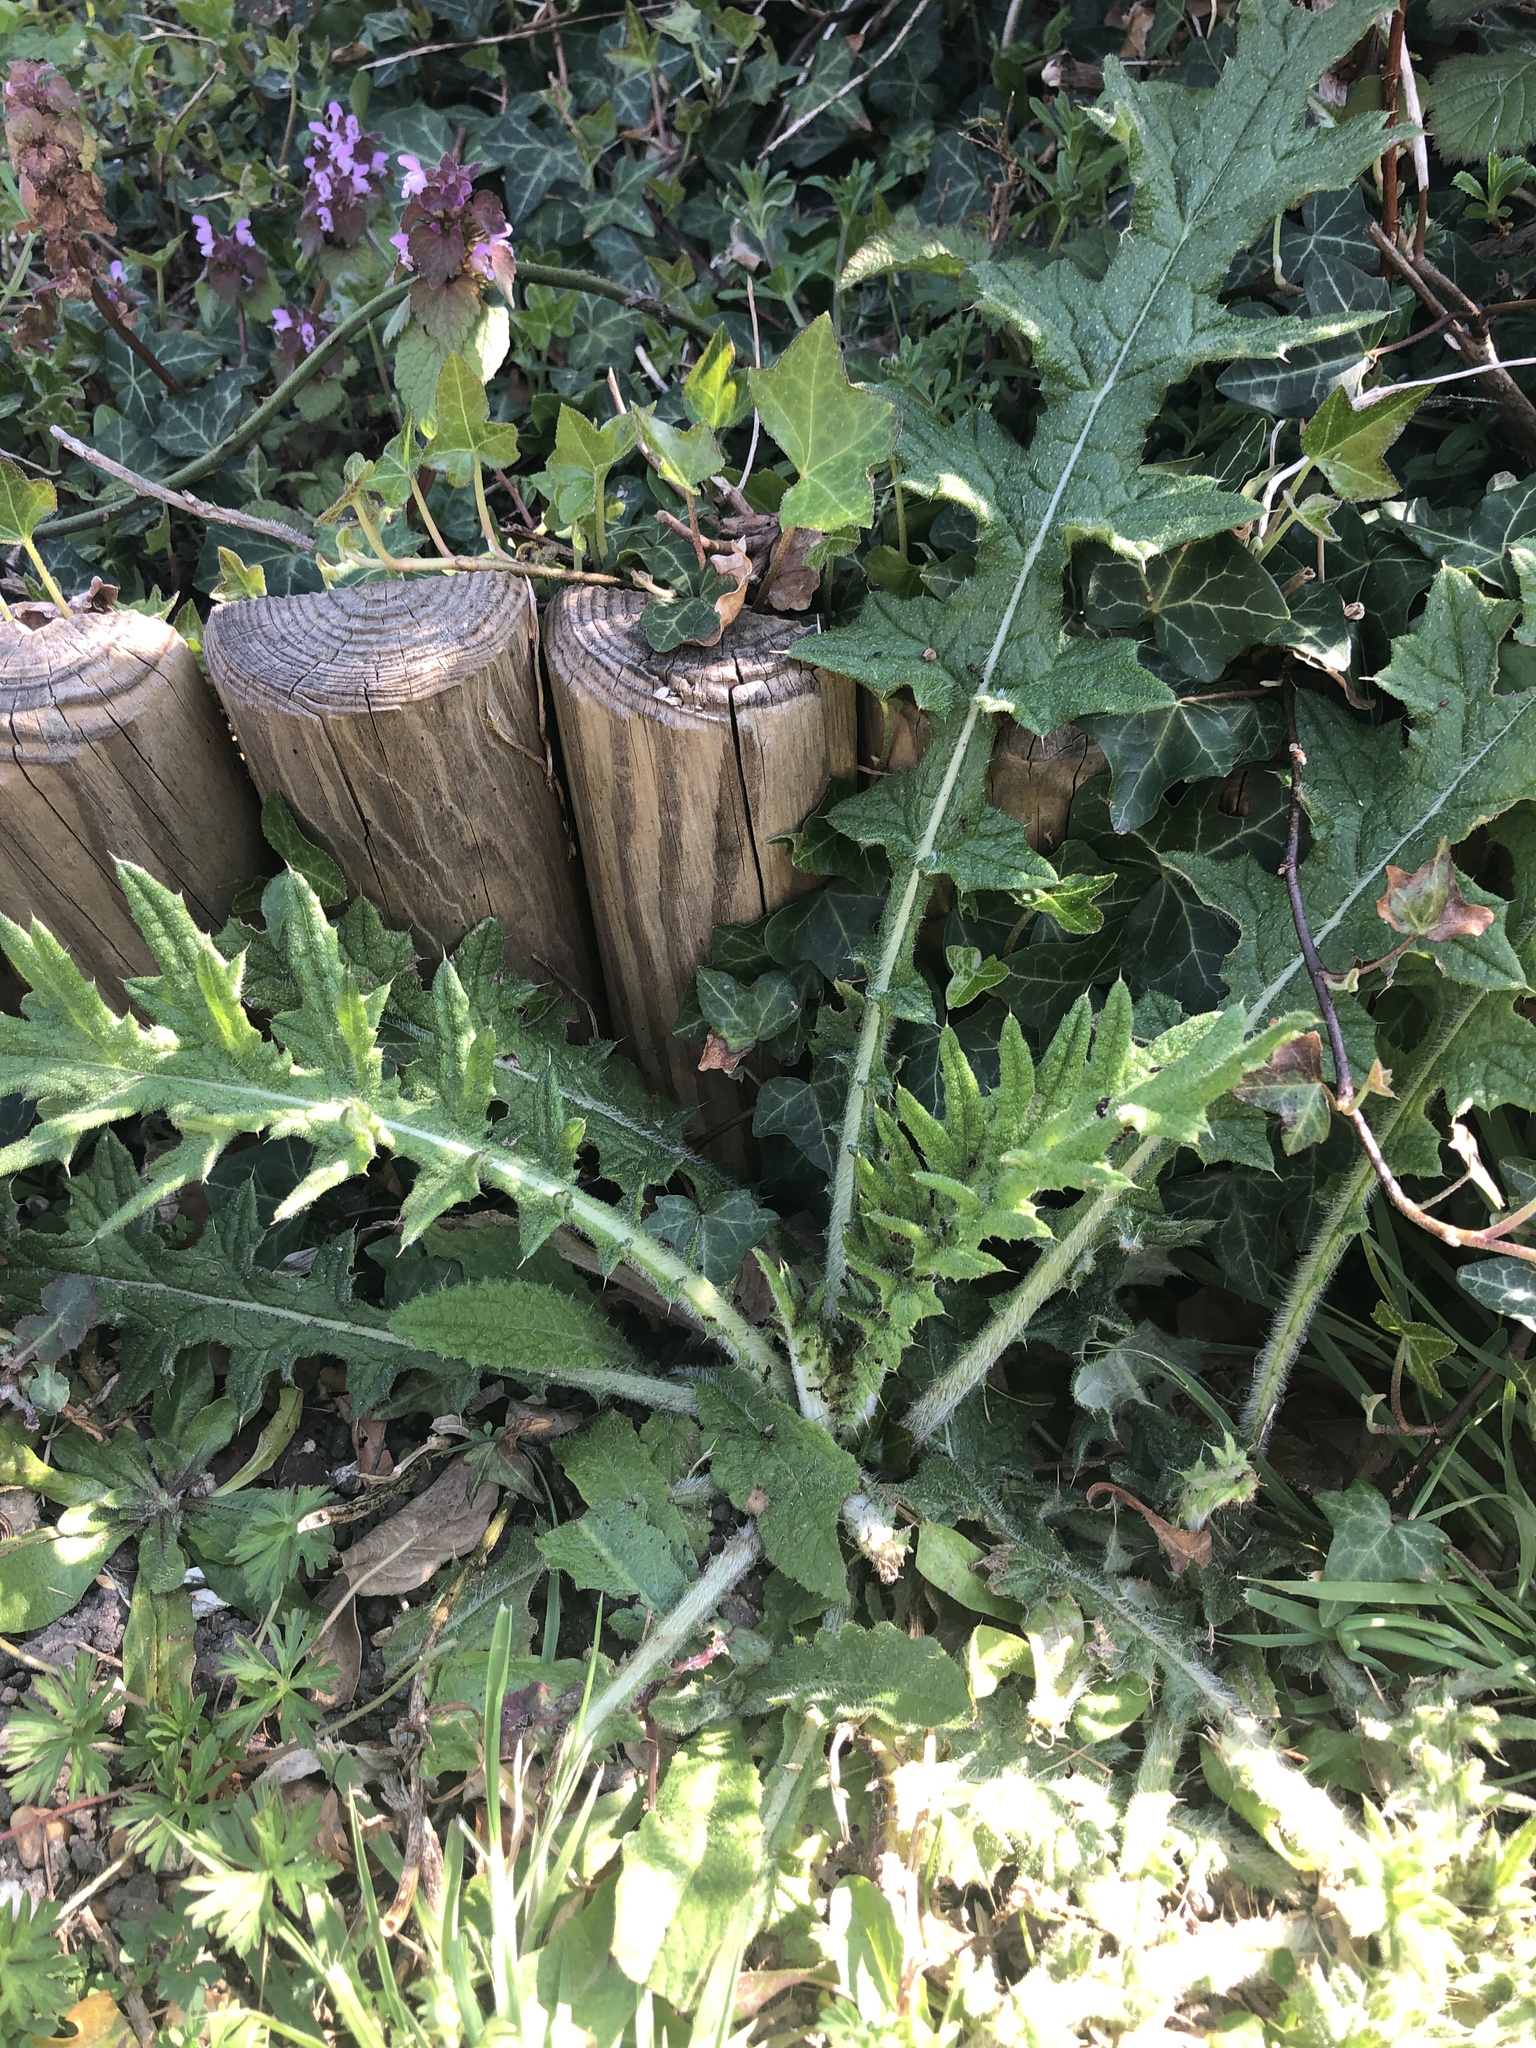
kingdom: Plantae
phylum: Tracheophyta
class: Magnoliopsida
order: Asterales
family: Asteraceae
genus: Cirsium
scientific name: Cirsium vulgare
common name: Bull thistle
